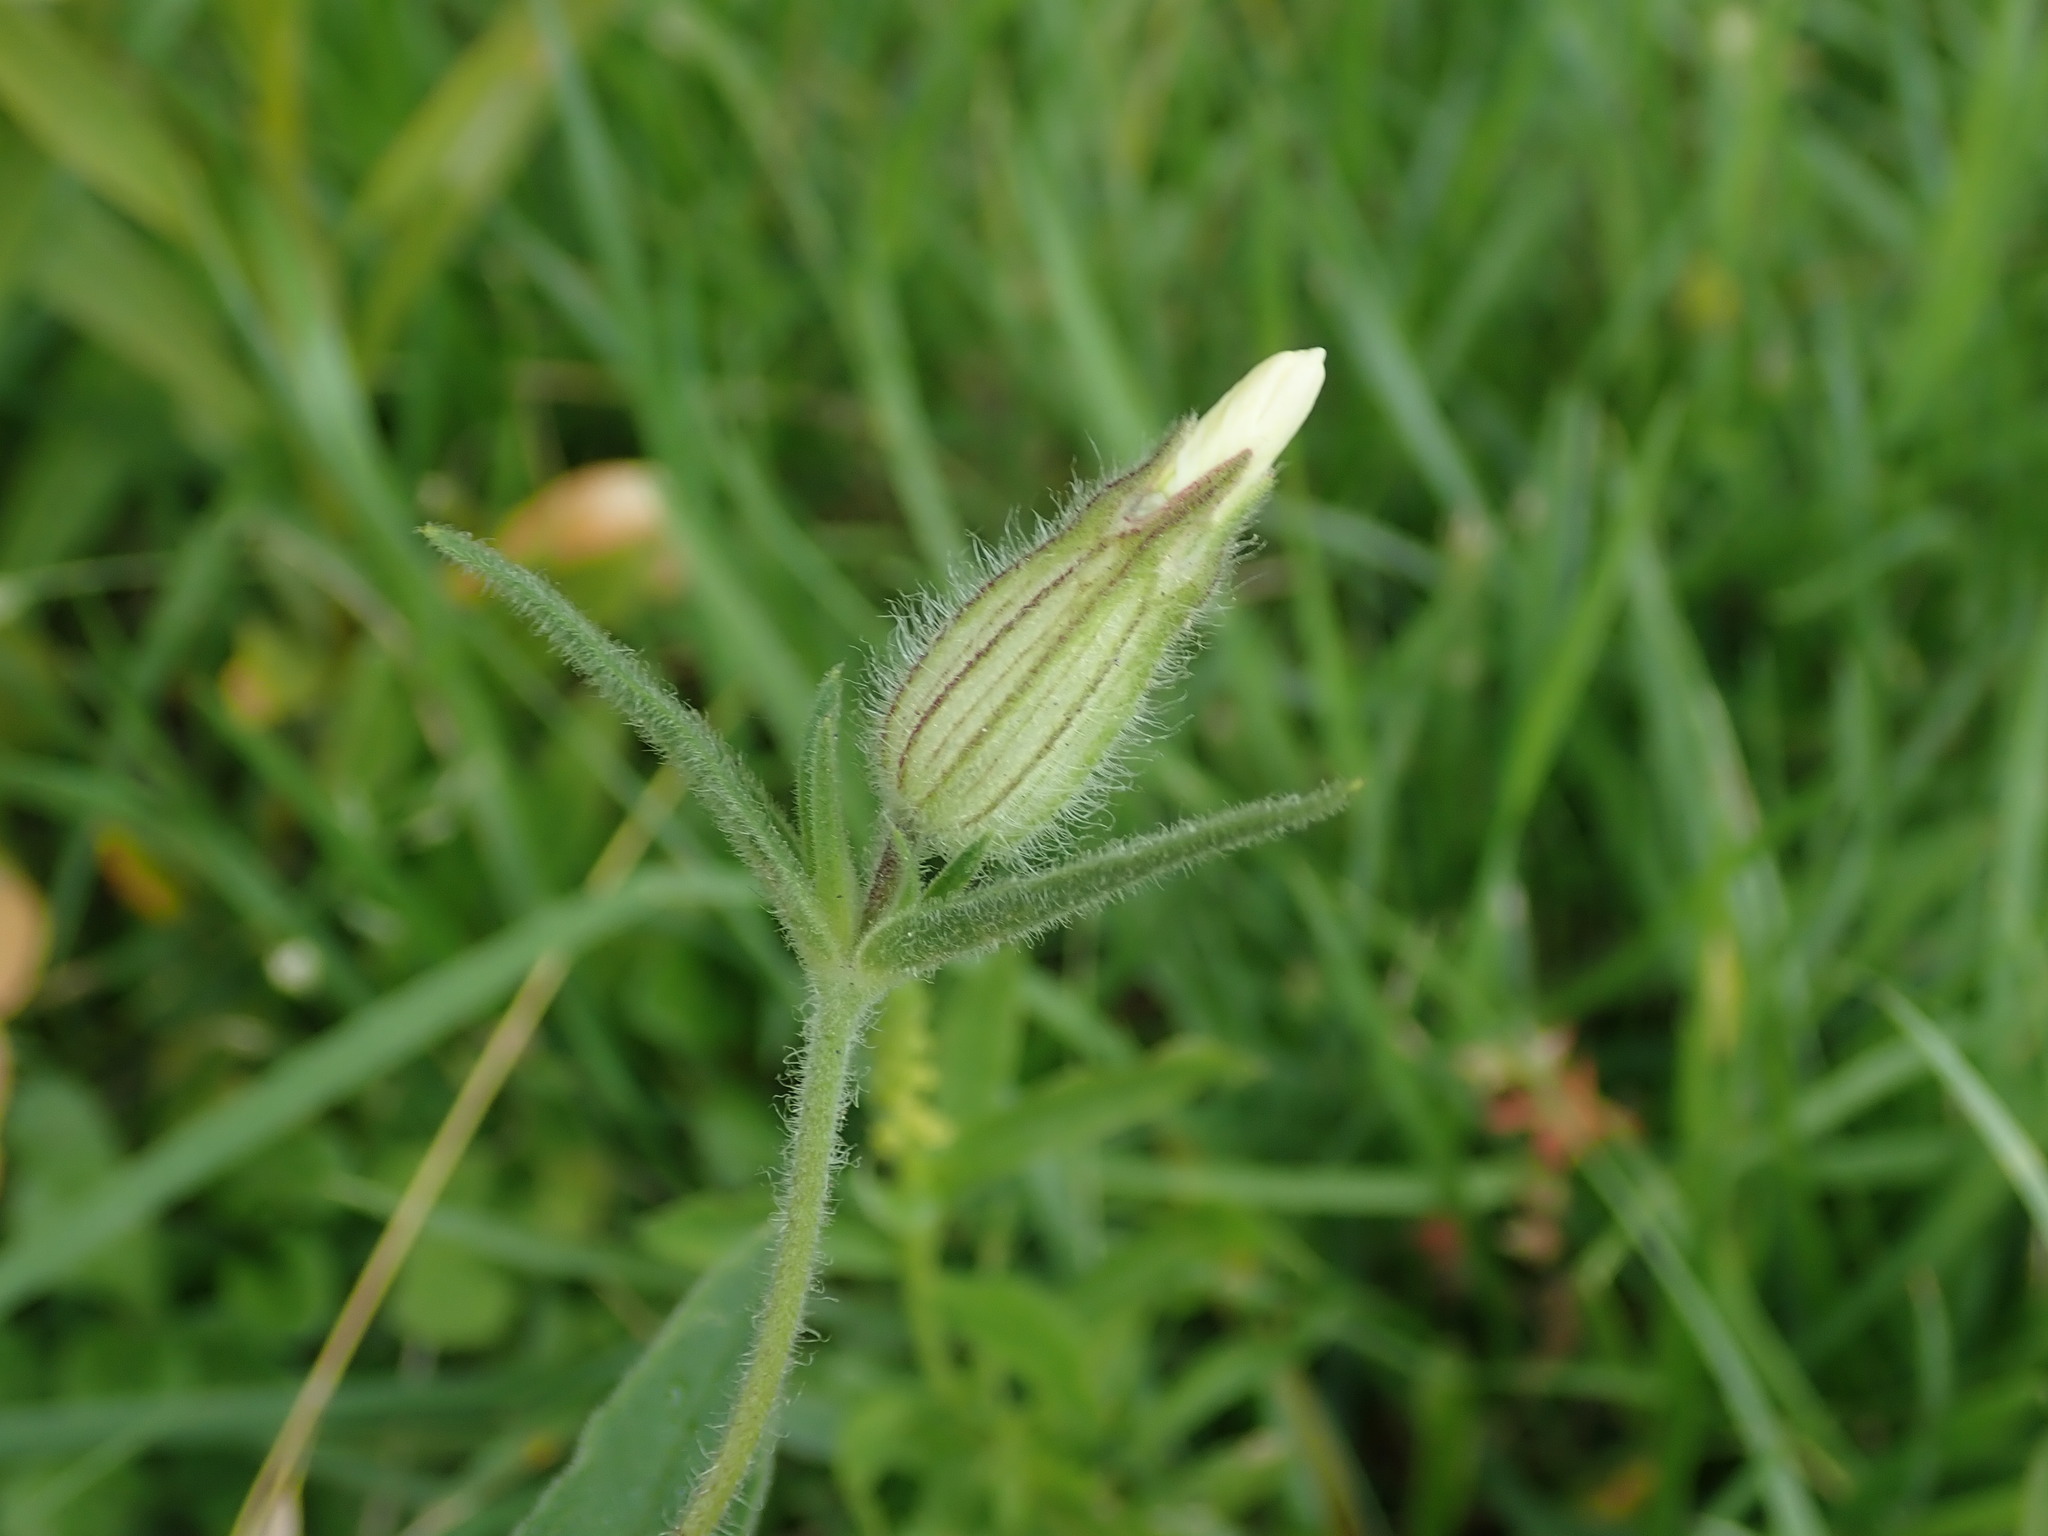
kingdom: Plantae
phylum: Tracheophyta
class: Magnoliopsida
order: Caryophyllales
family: Caryophyllaceae
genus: Silene
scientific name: Silene latifolia
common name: White campion
